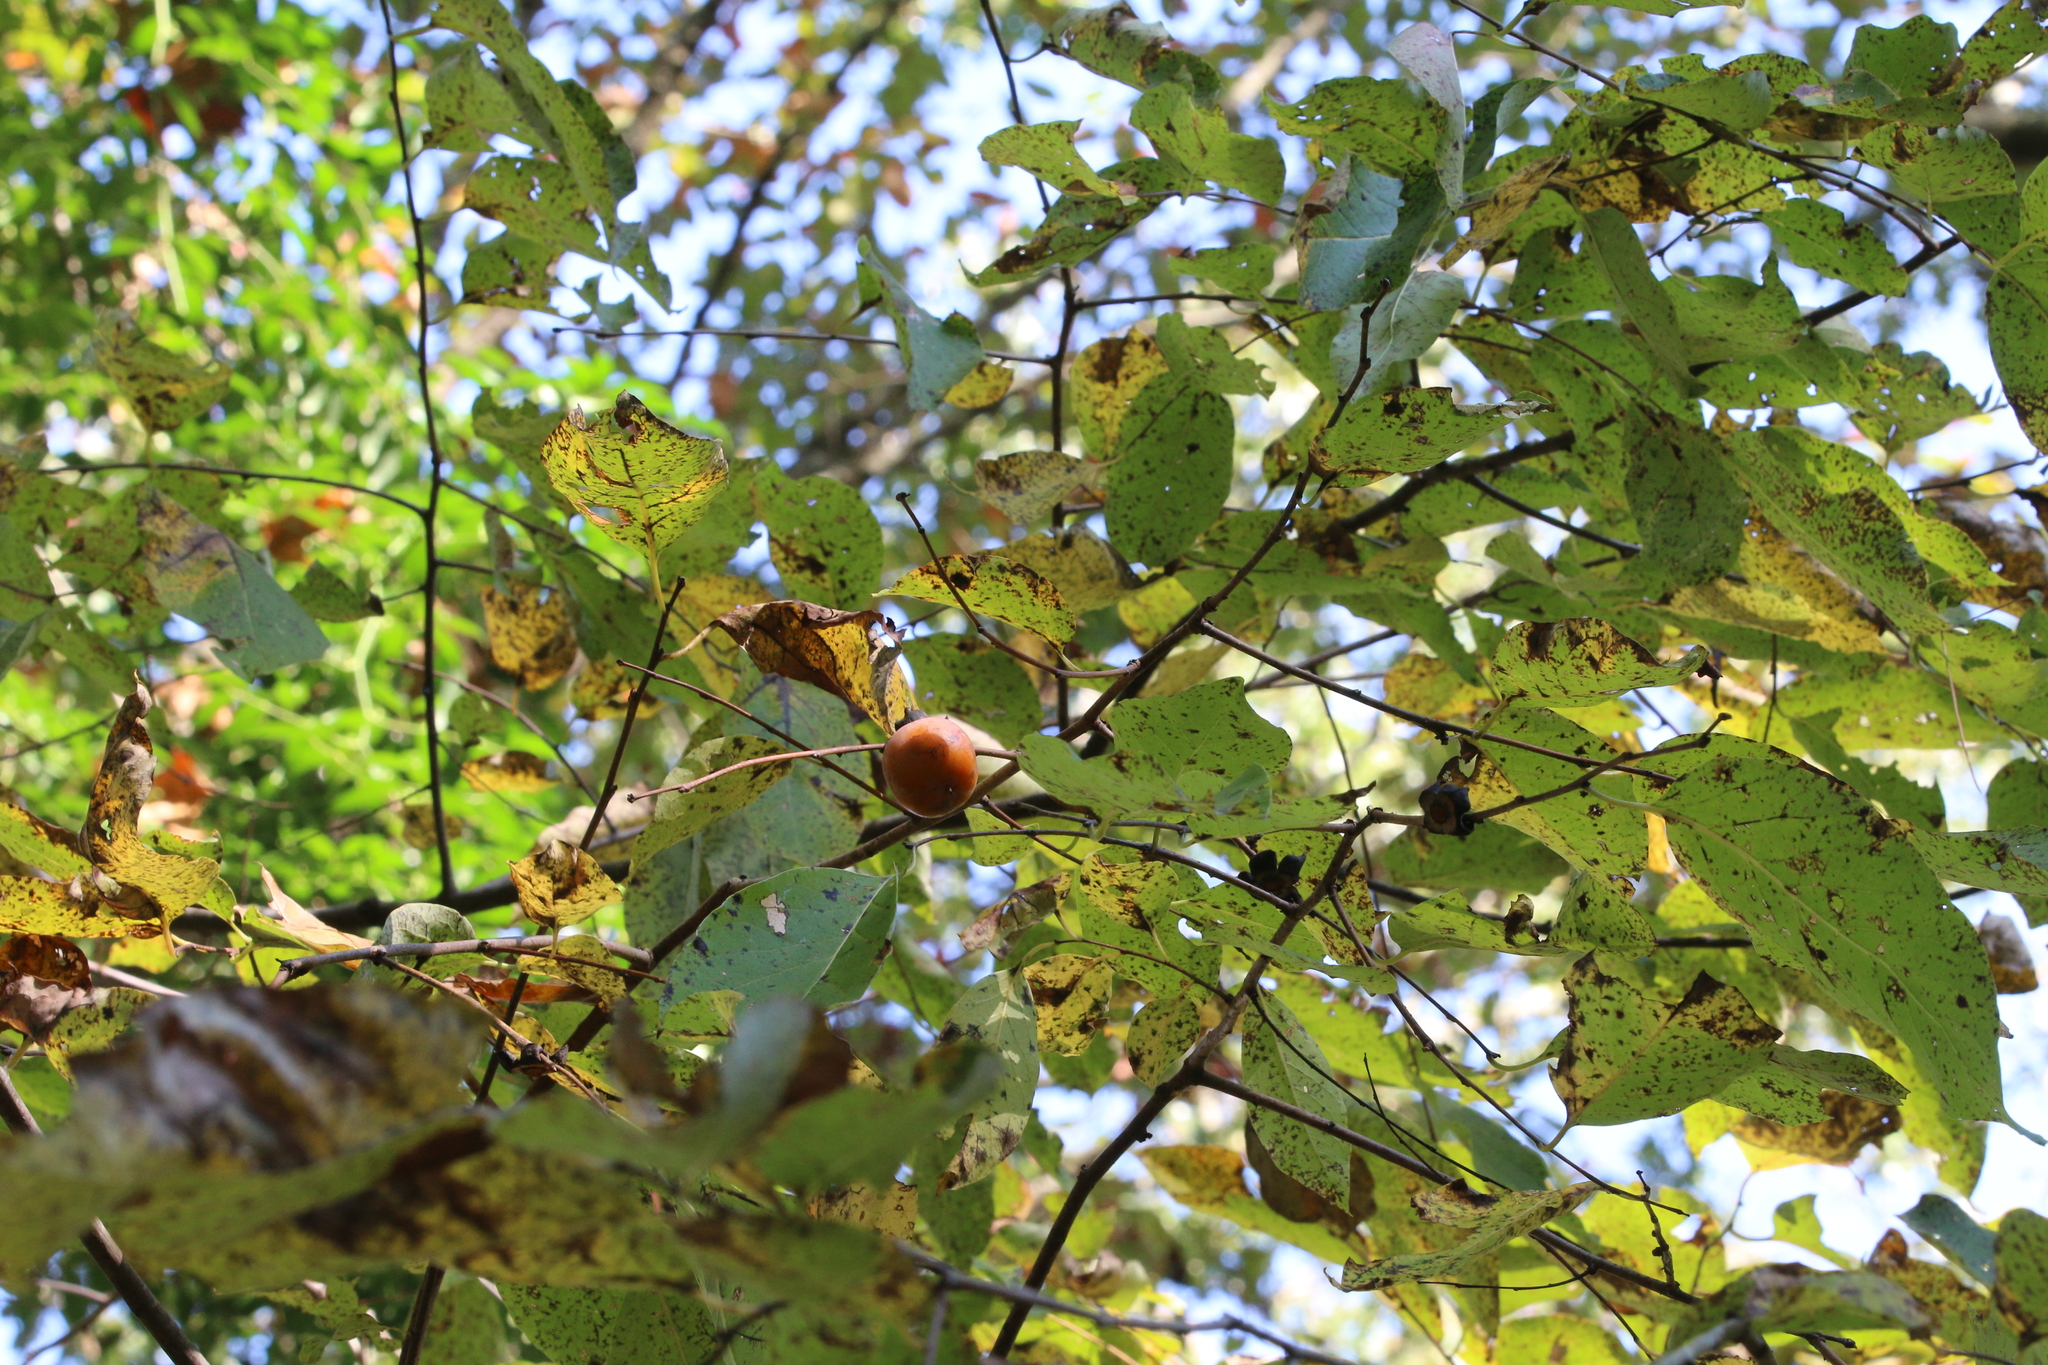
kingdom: Plantae
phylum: Tracheophyta
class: Magnoliopsida
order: Ericales
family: Ebenaceae
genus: Diospyros
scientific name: Diospyros virginiana
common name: Persimmon
